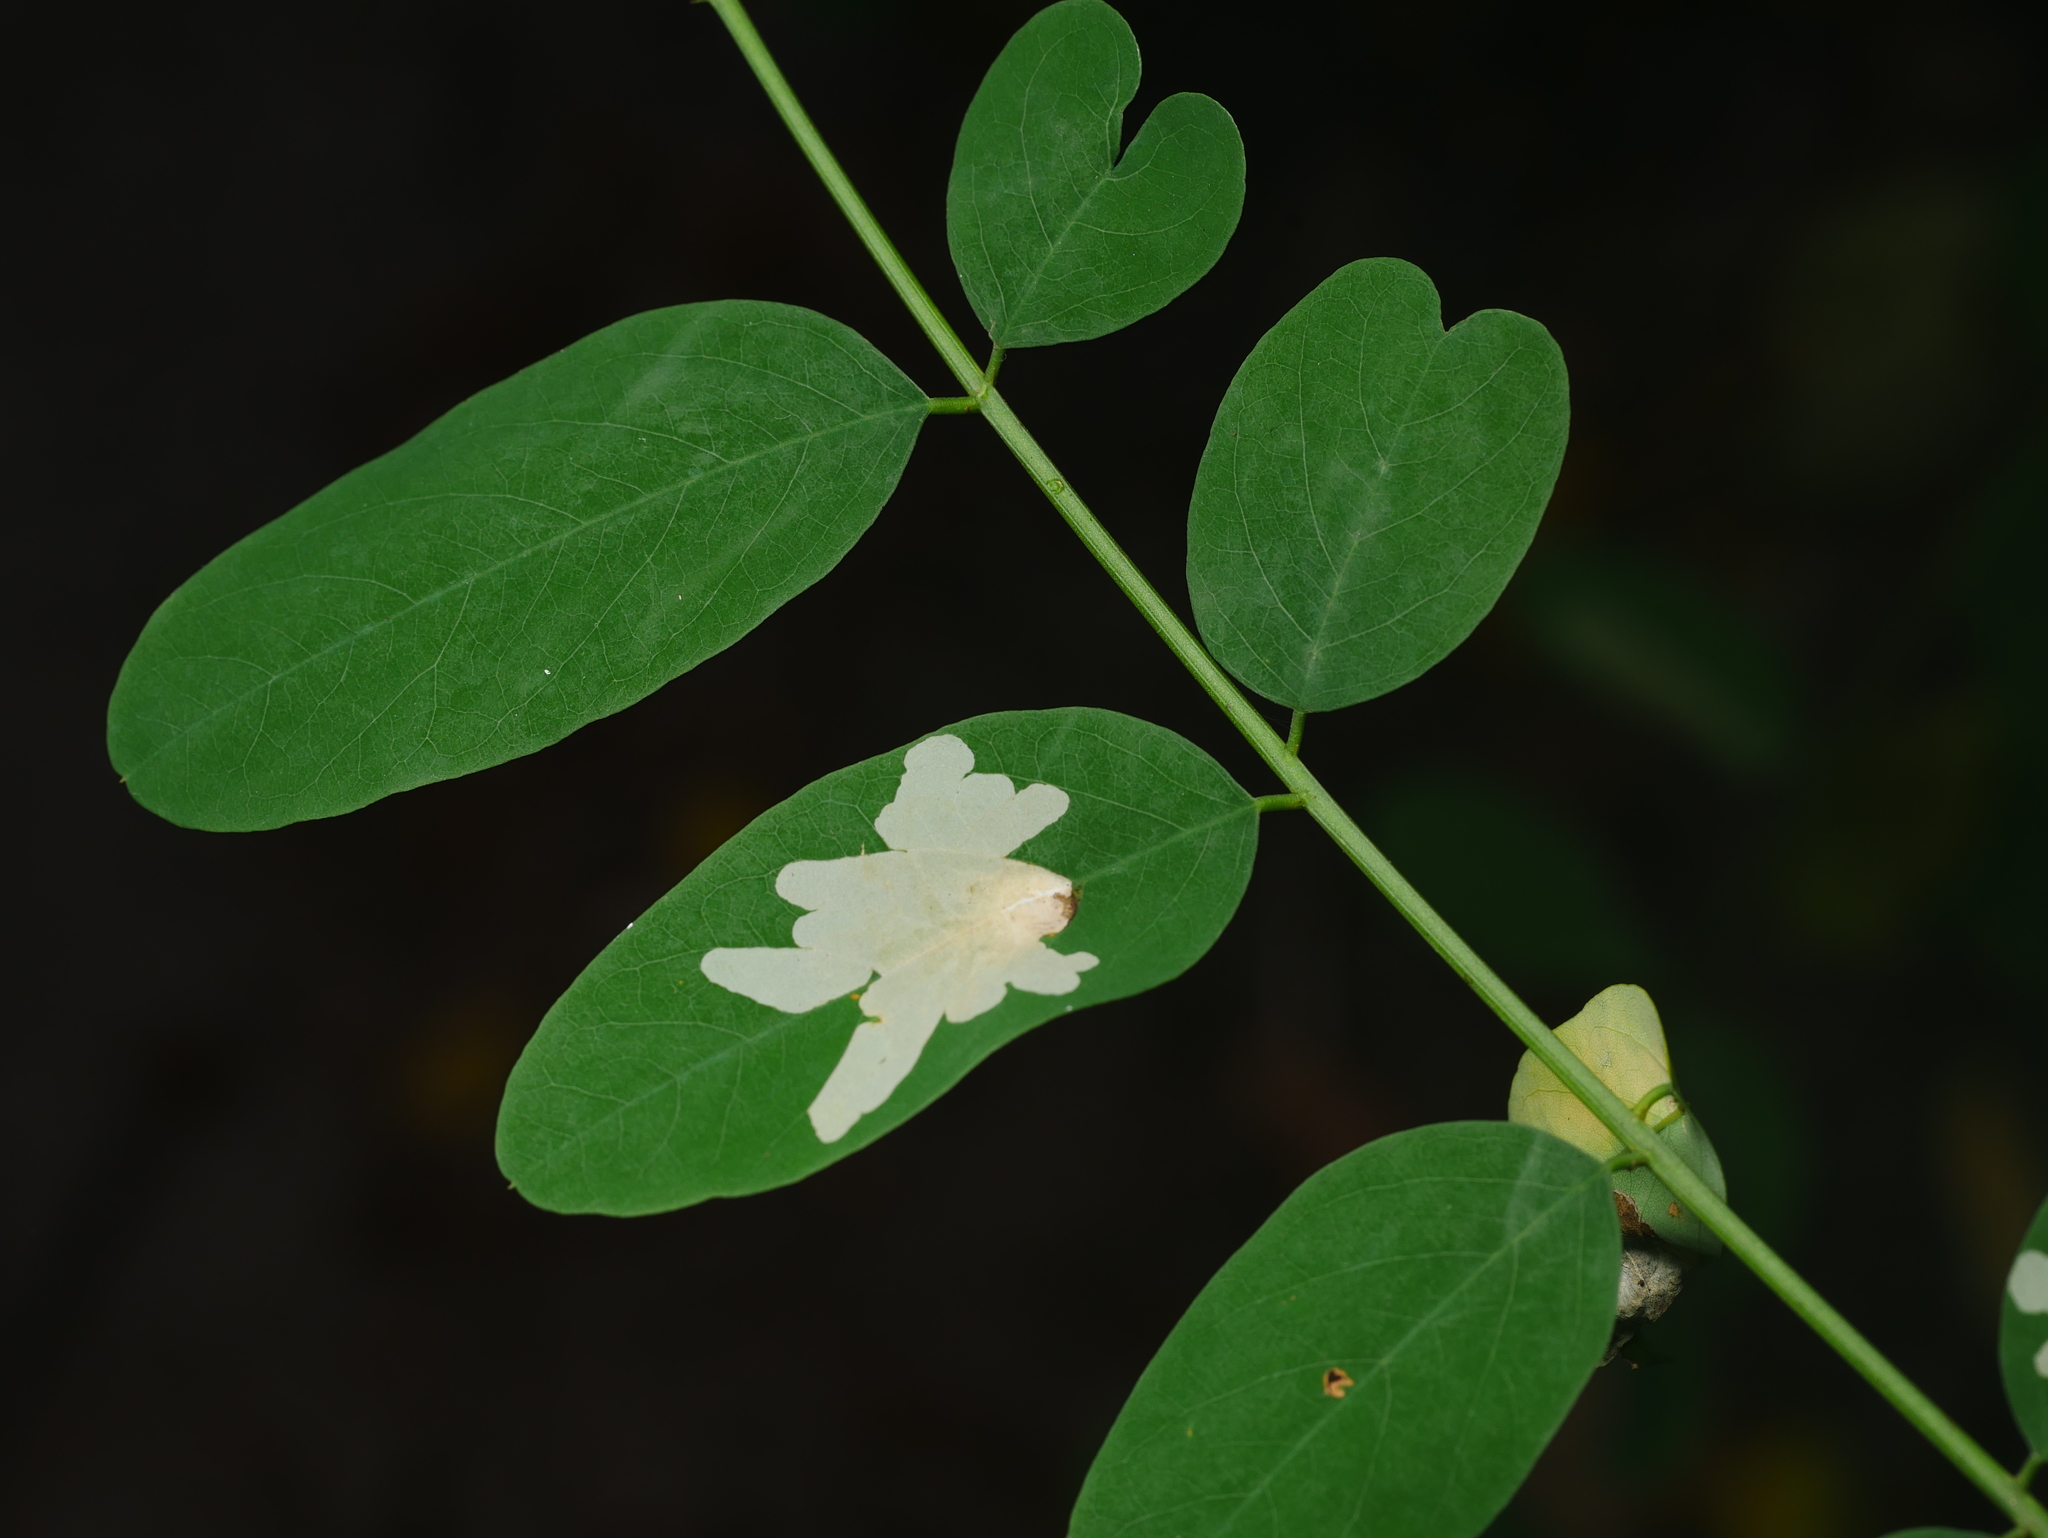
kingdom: Animalia
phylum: Arthropoda
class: Insecta
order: Lepidoptera
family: Gracillariidae
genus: Parectopa
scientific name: Parectopa robiniella
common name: Locust digitate leafminer
